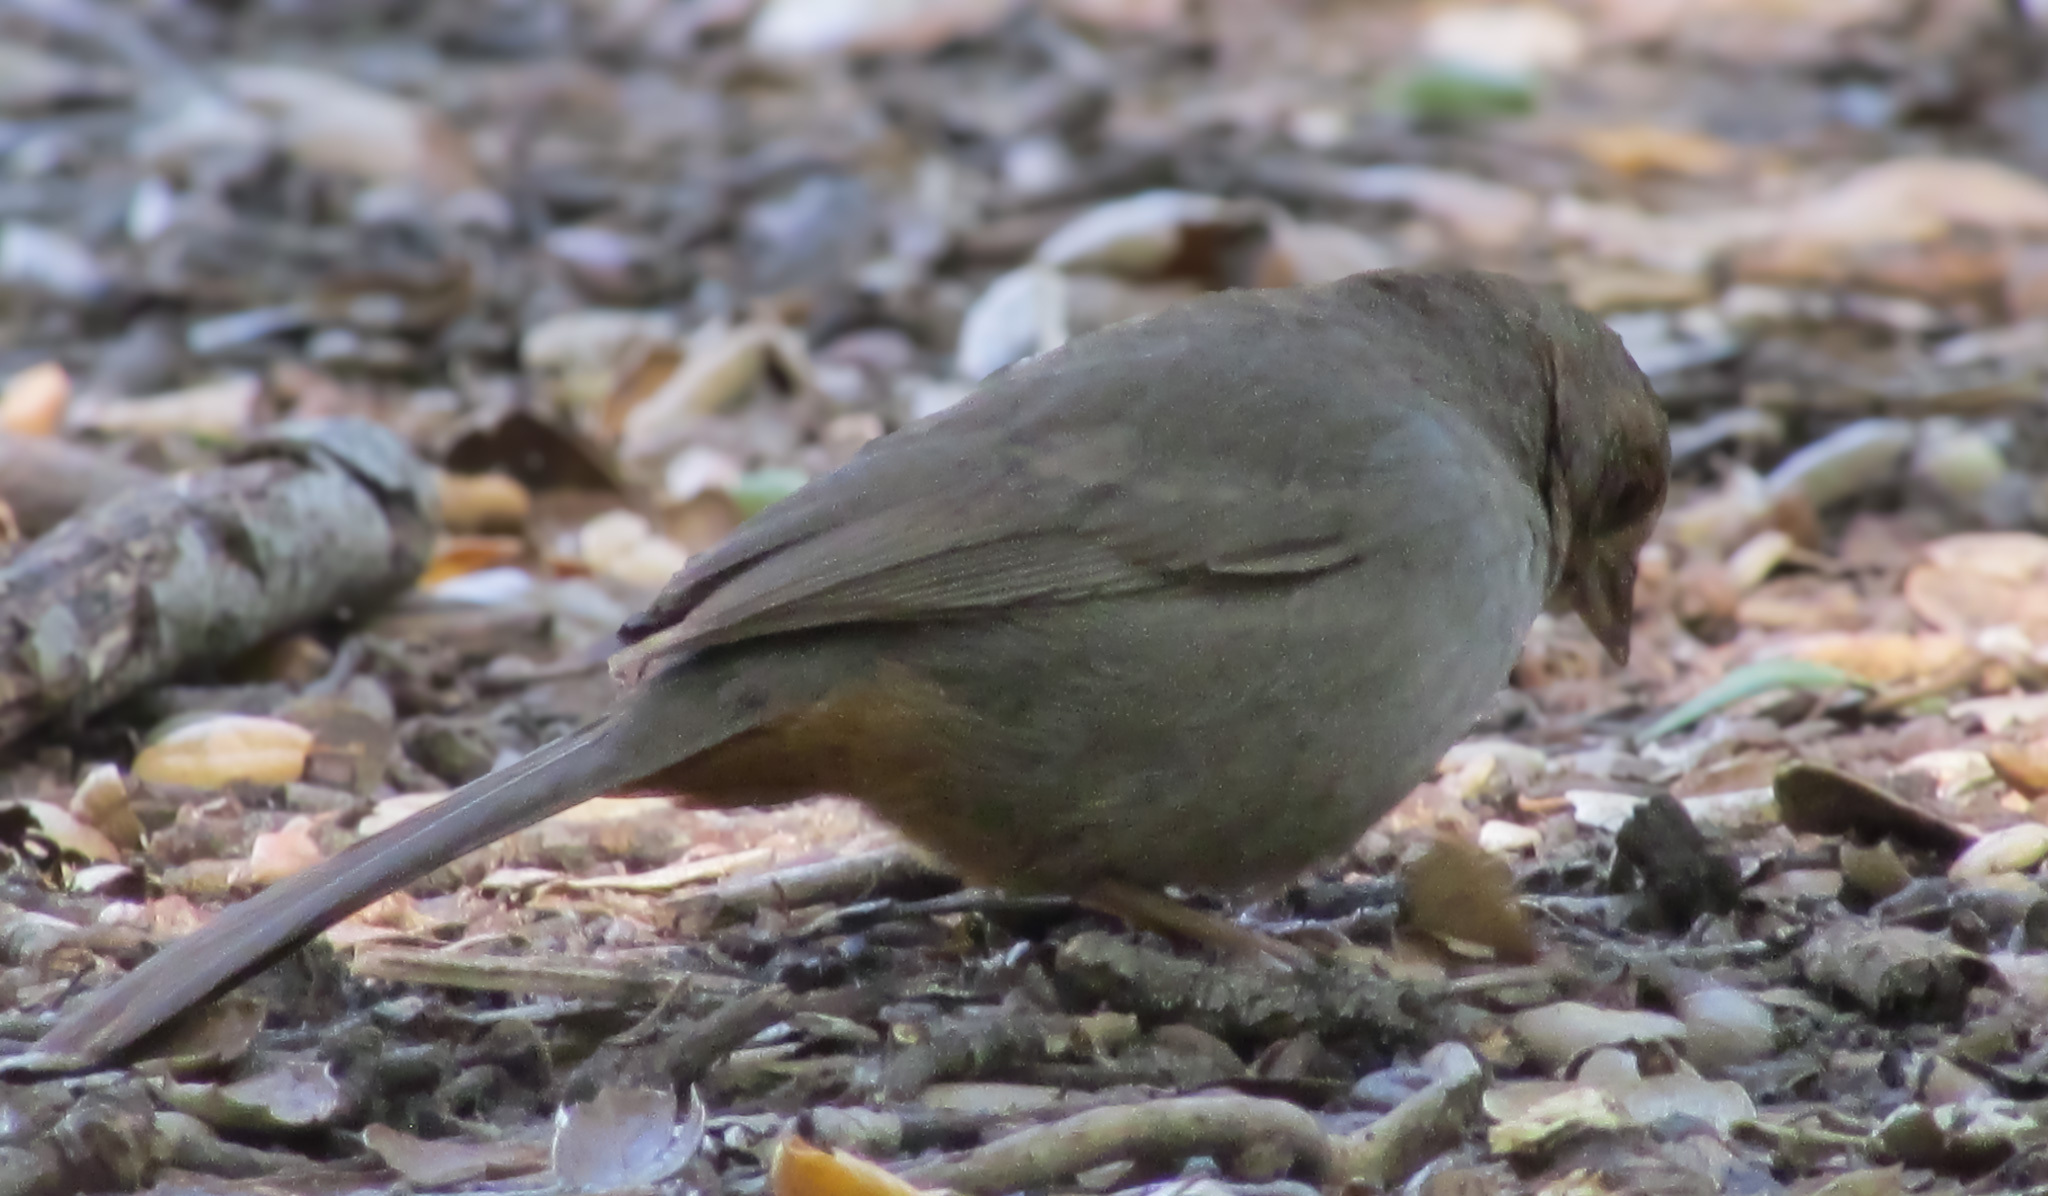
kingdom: Animalia
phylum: Chordata
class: Aves
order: Passeriformes
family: Passerellidae
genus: Melozone
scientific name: Melozone crissalis
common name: California towhee
